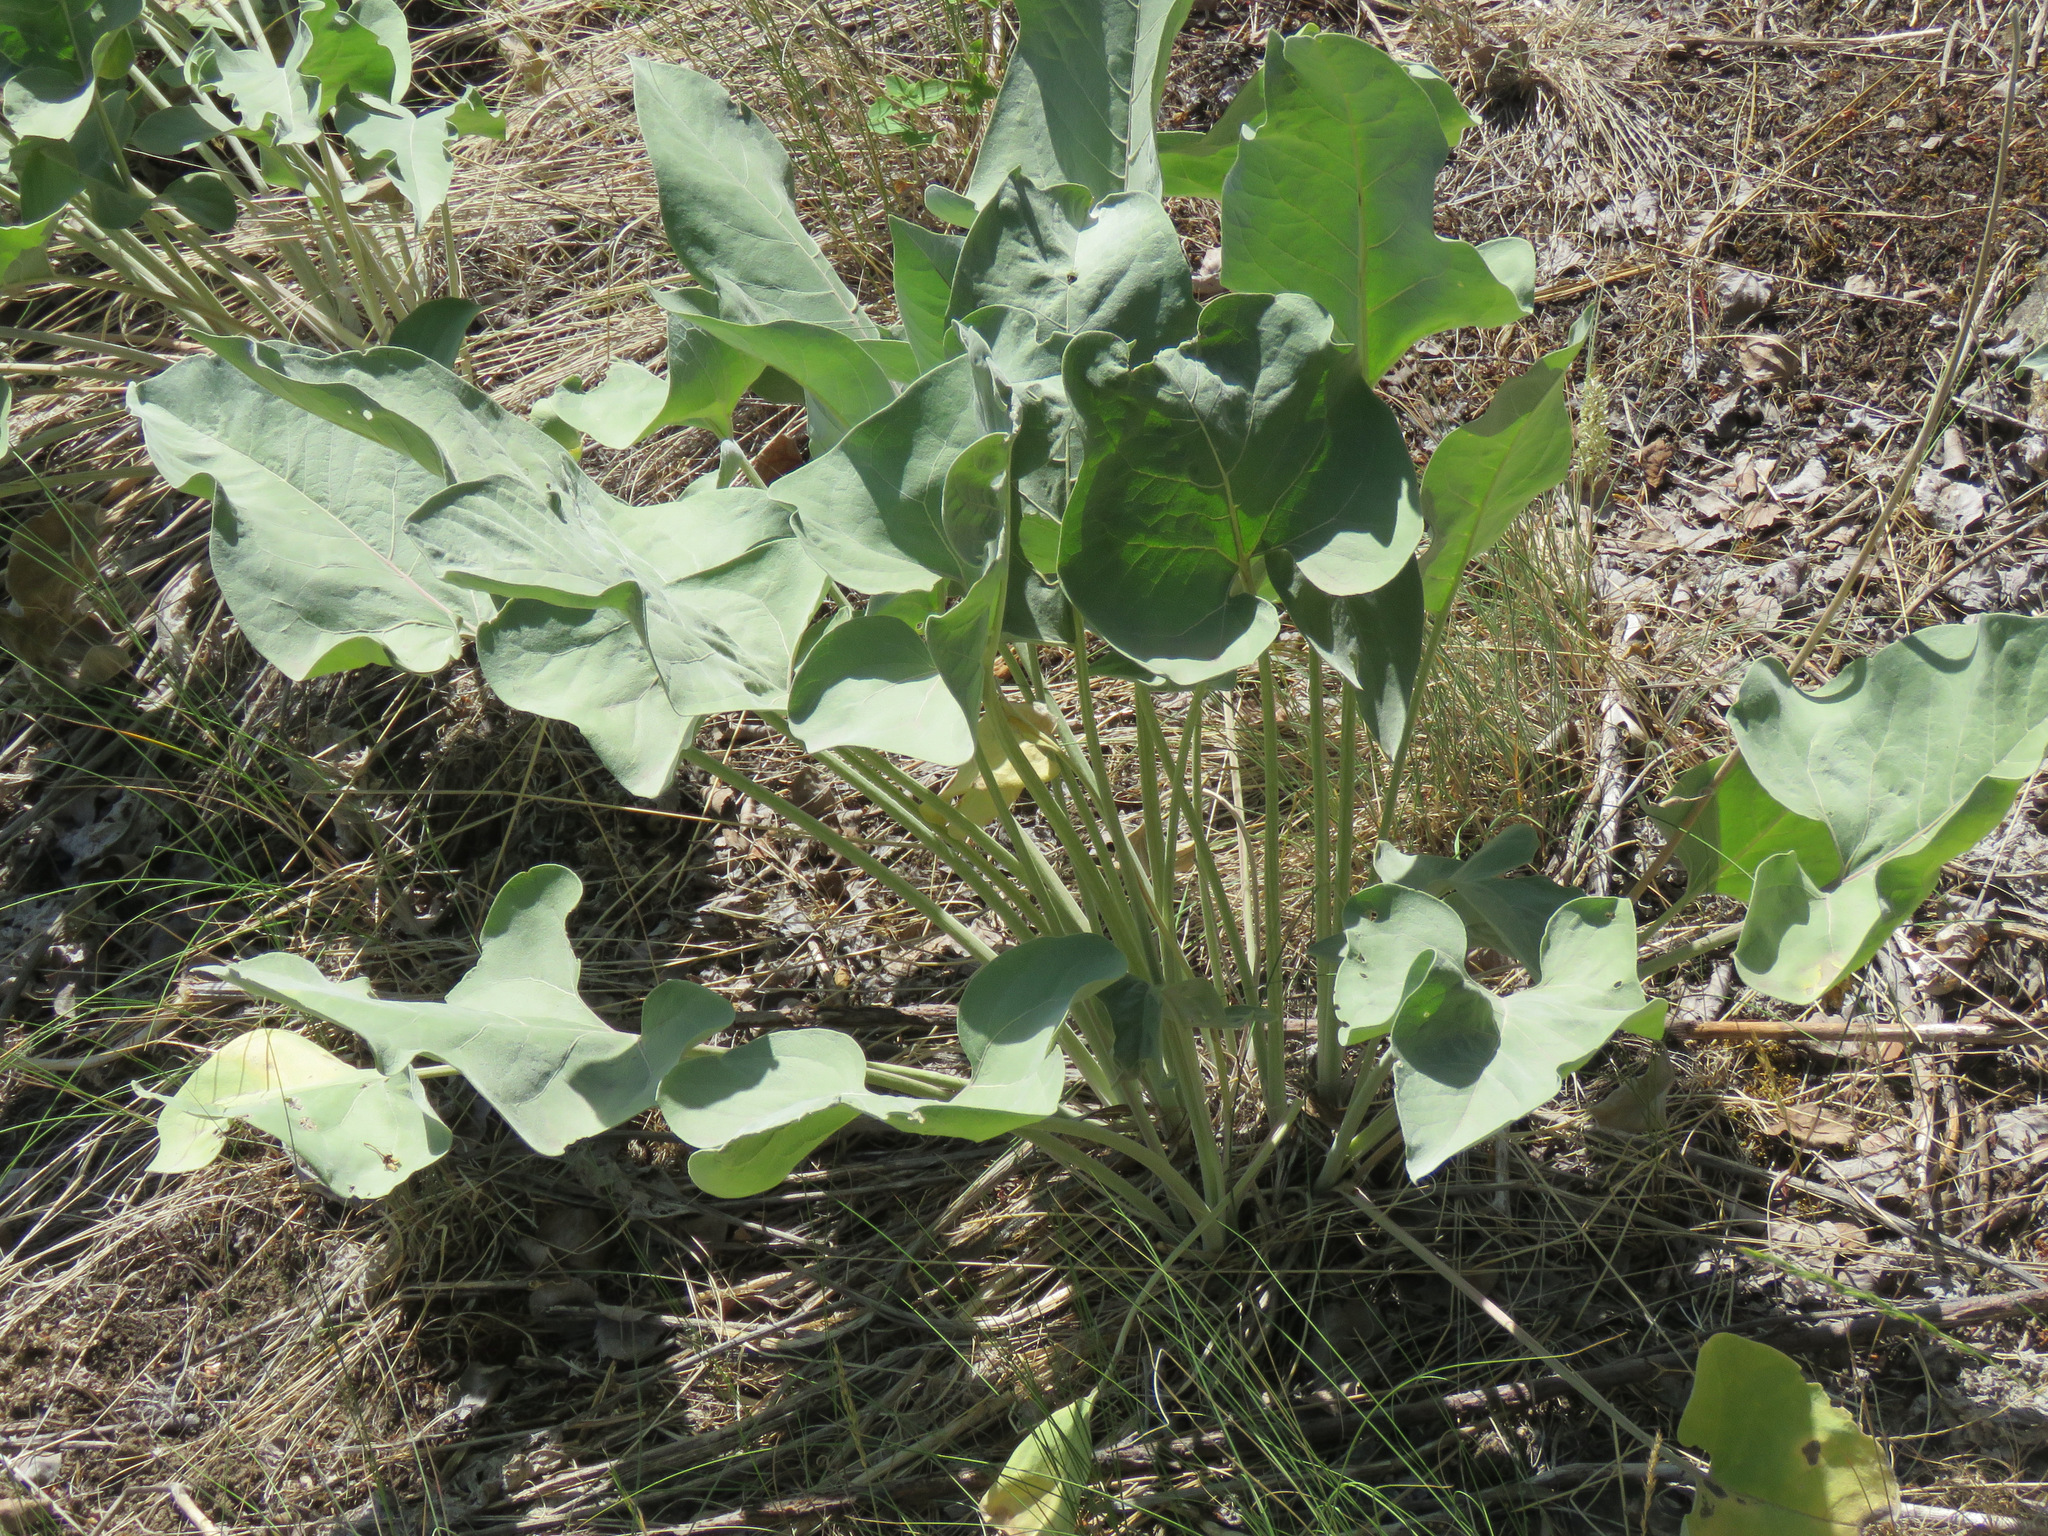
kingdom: Plantae
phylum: Tracheophyta
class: Magnoliopsida
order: Asterales
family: Asteraceae
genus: Wyethia
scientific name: Wyethia sagittata
